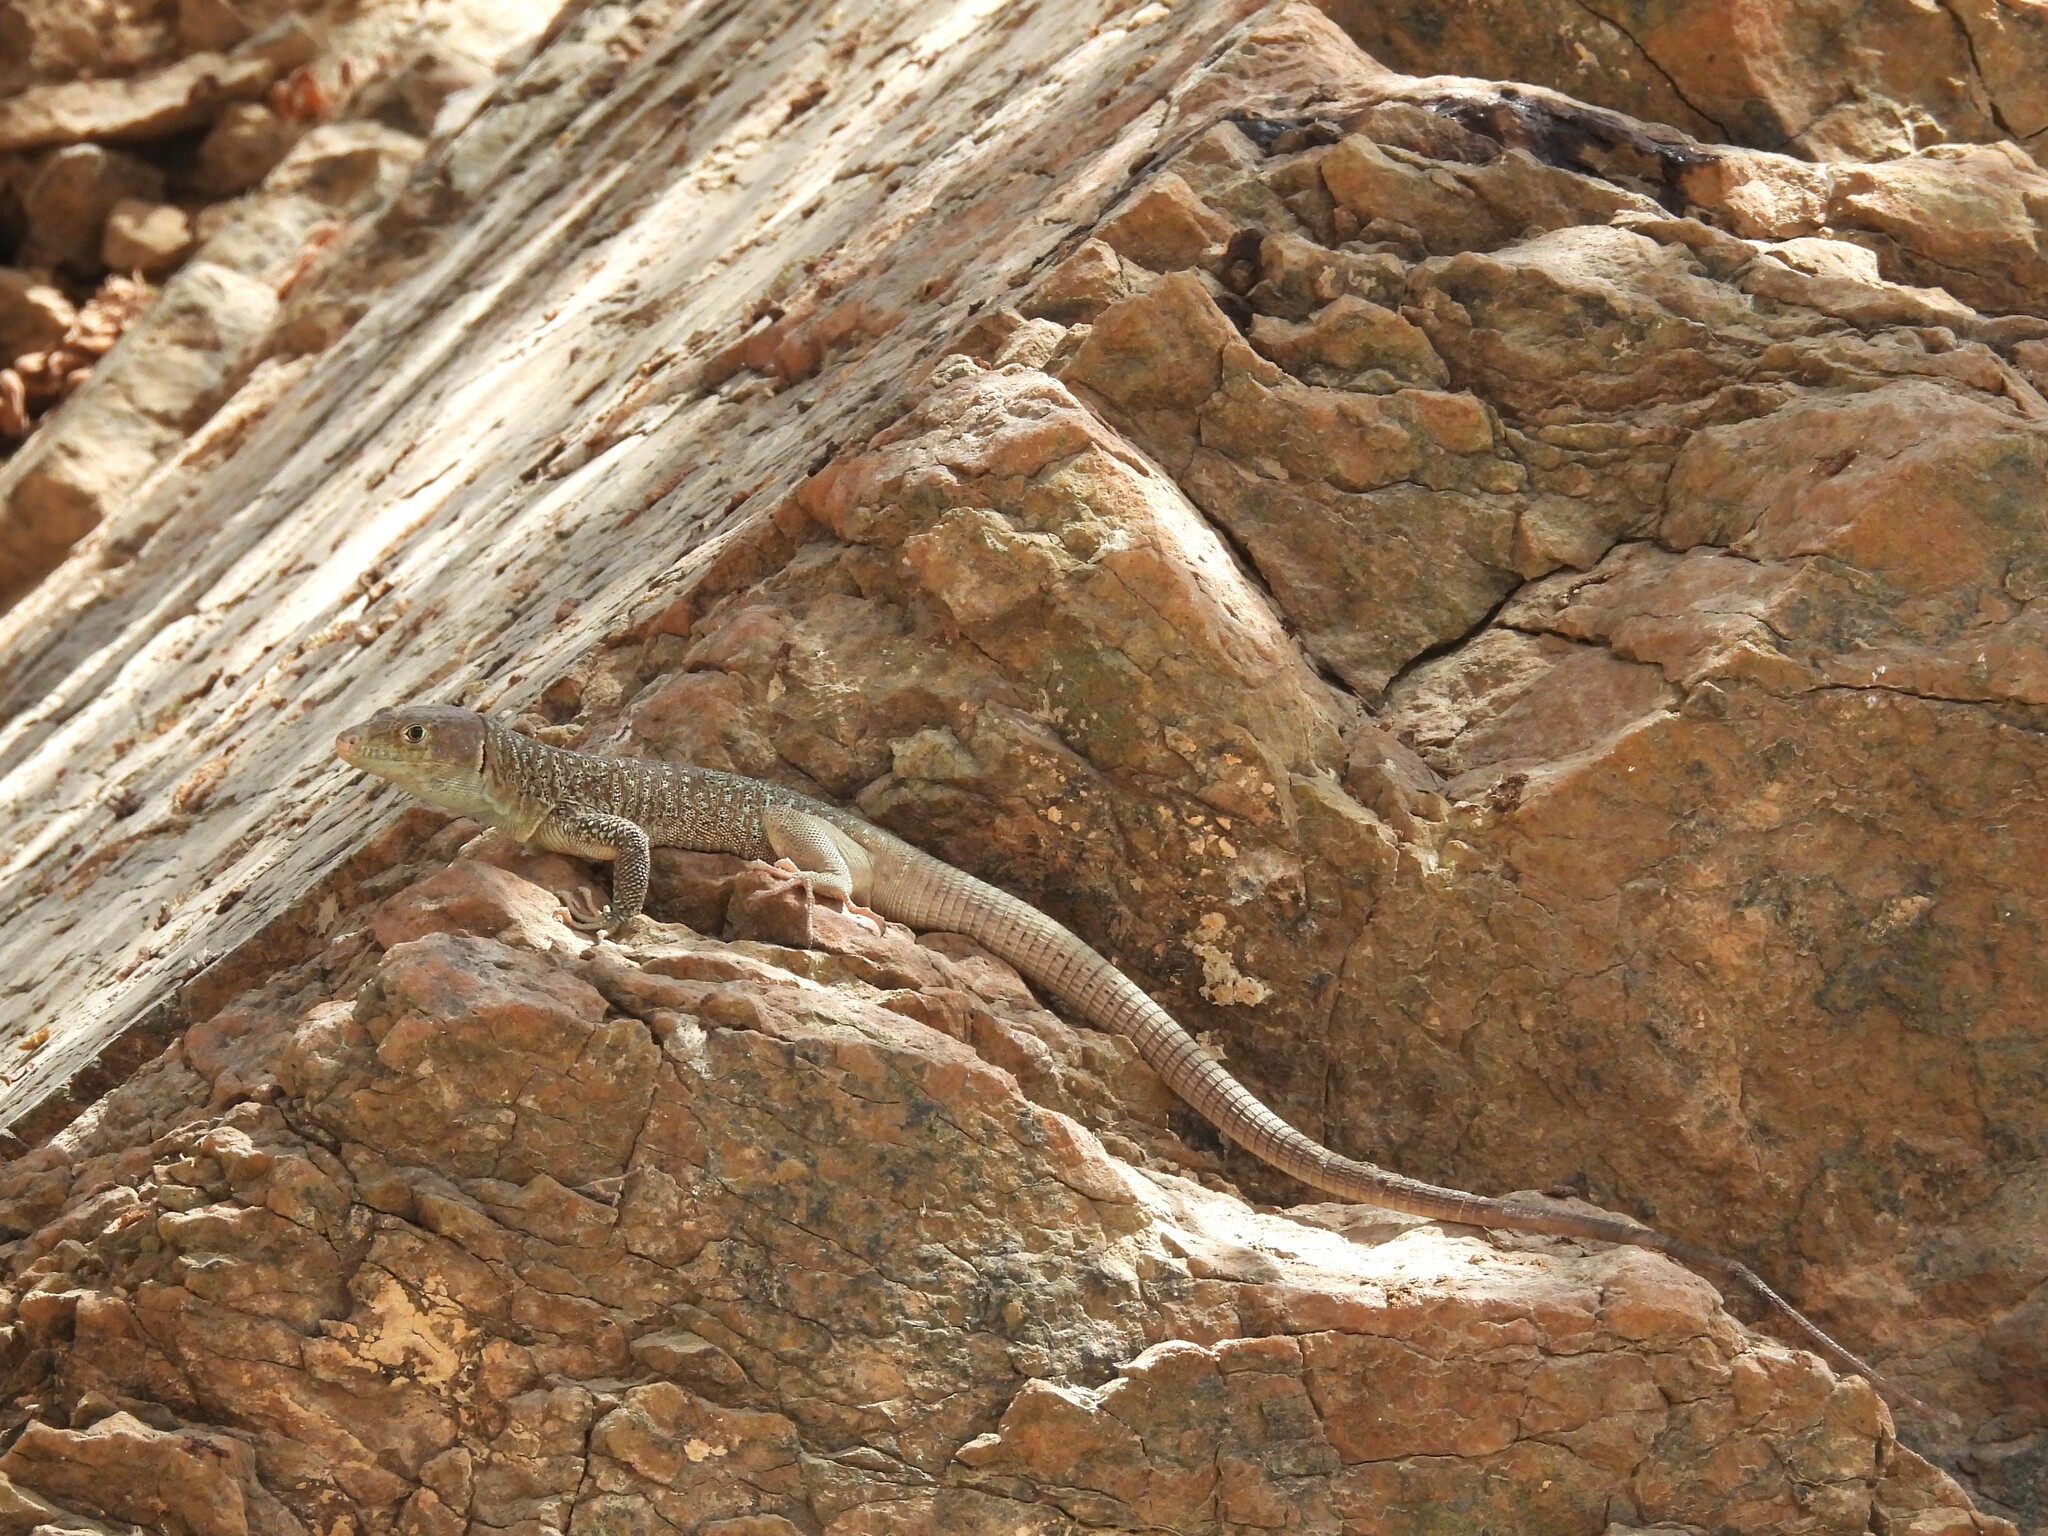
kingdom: Animalia
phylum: Chordata
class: Squamata
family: Lacertidae
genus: Omanosaura
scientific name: Omanosaura jayakari
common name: Jayakar lizard
